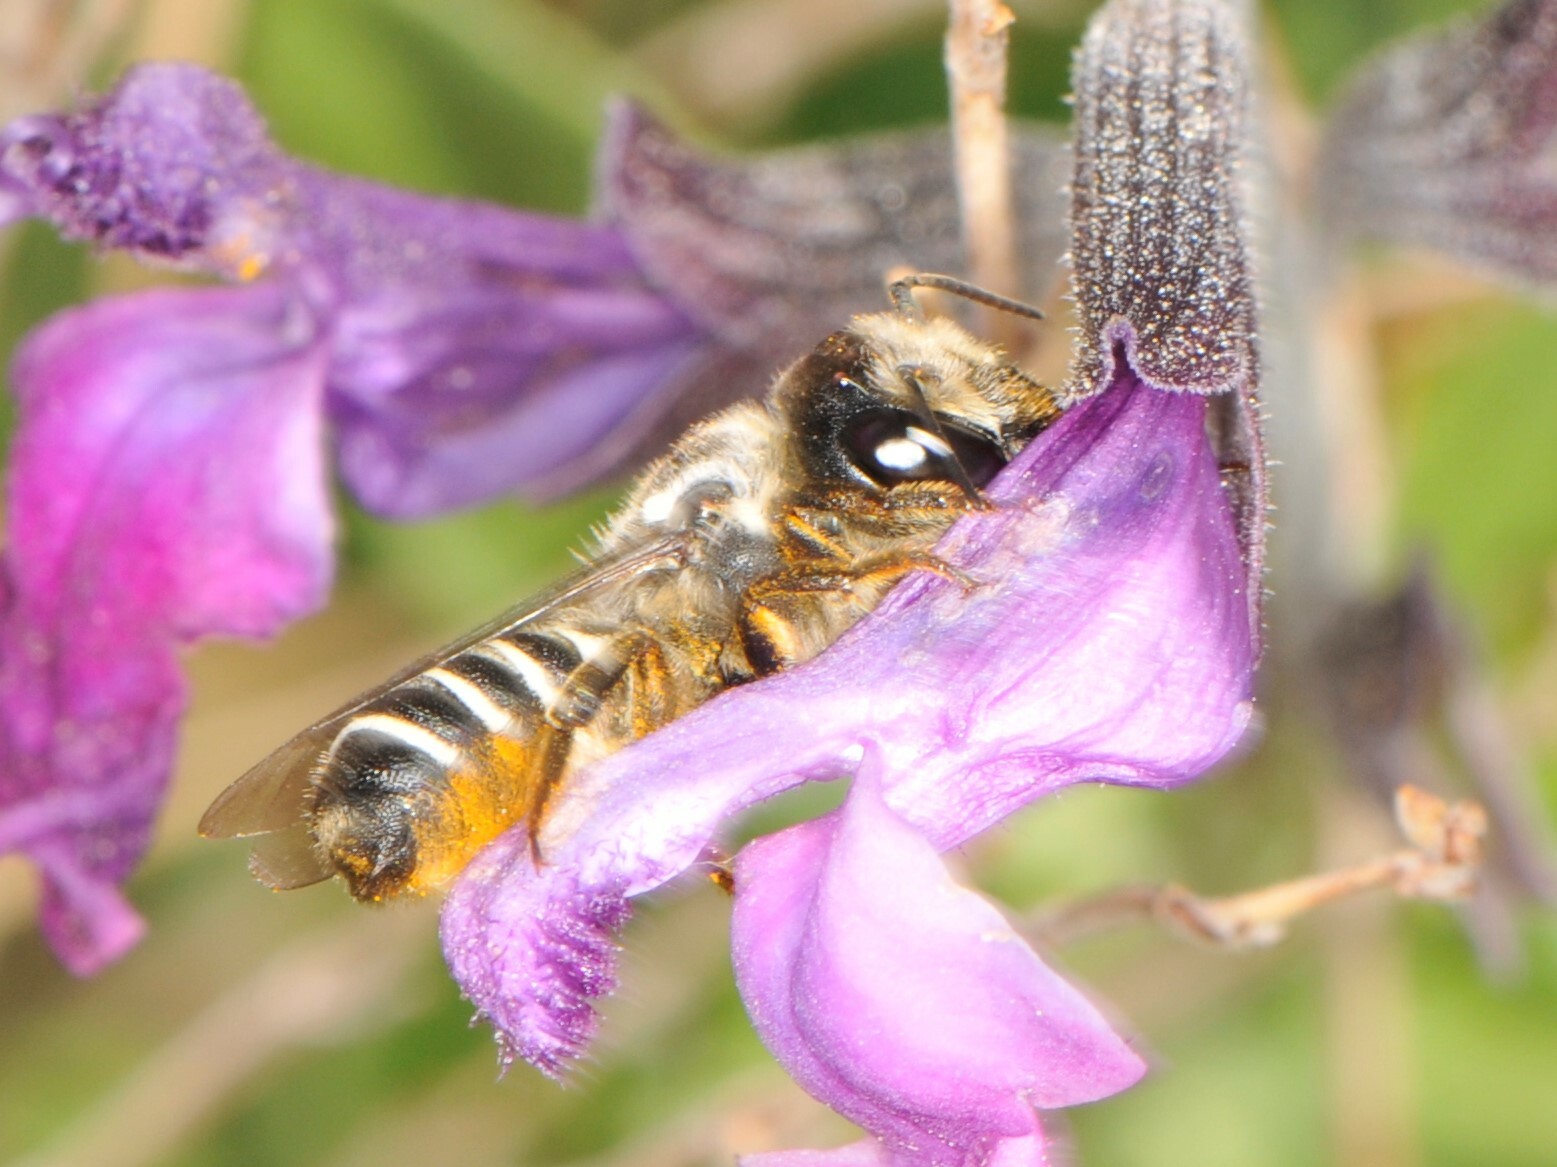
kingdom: Animalia
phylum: Arthropoda
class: Insecta
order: Hymenoptera
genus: Chelostomoides
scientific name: Chelostomoides
